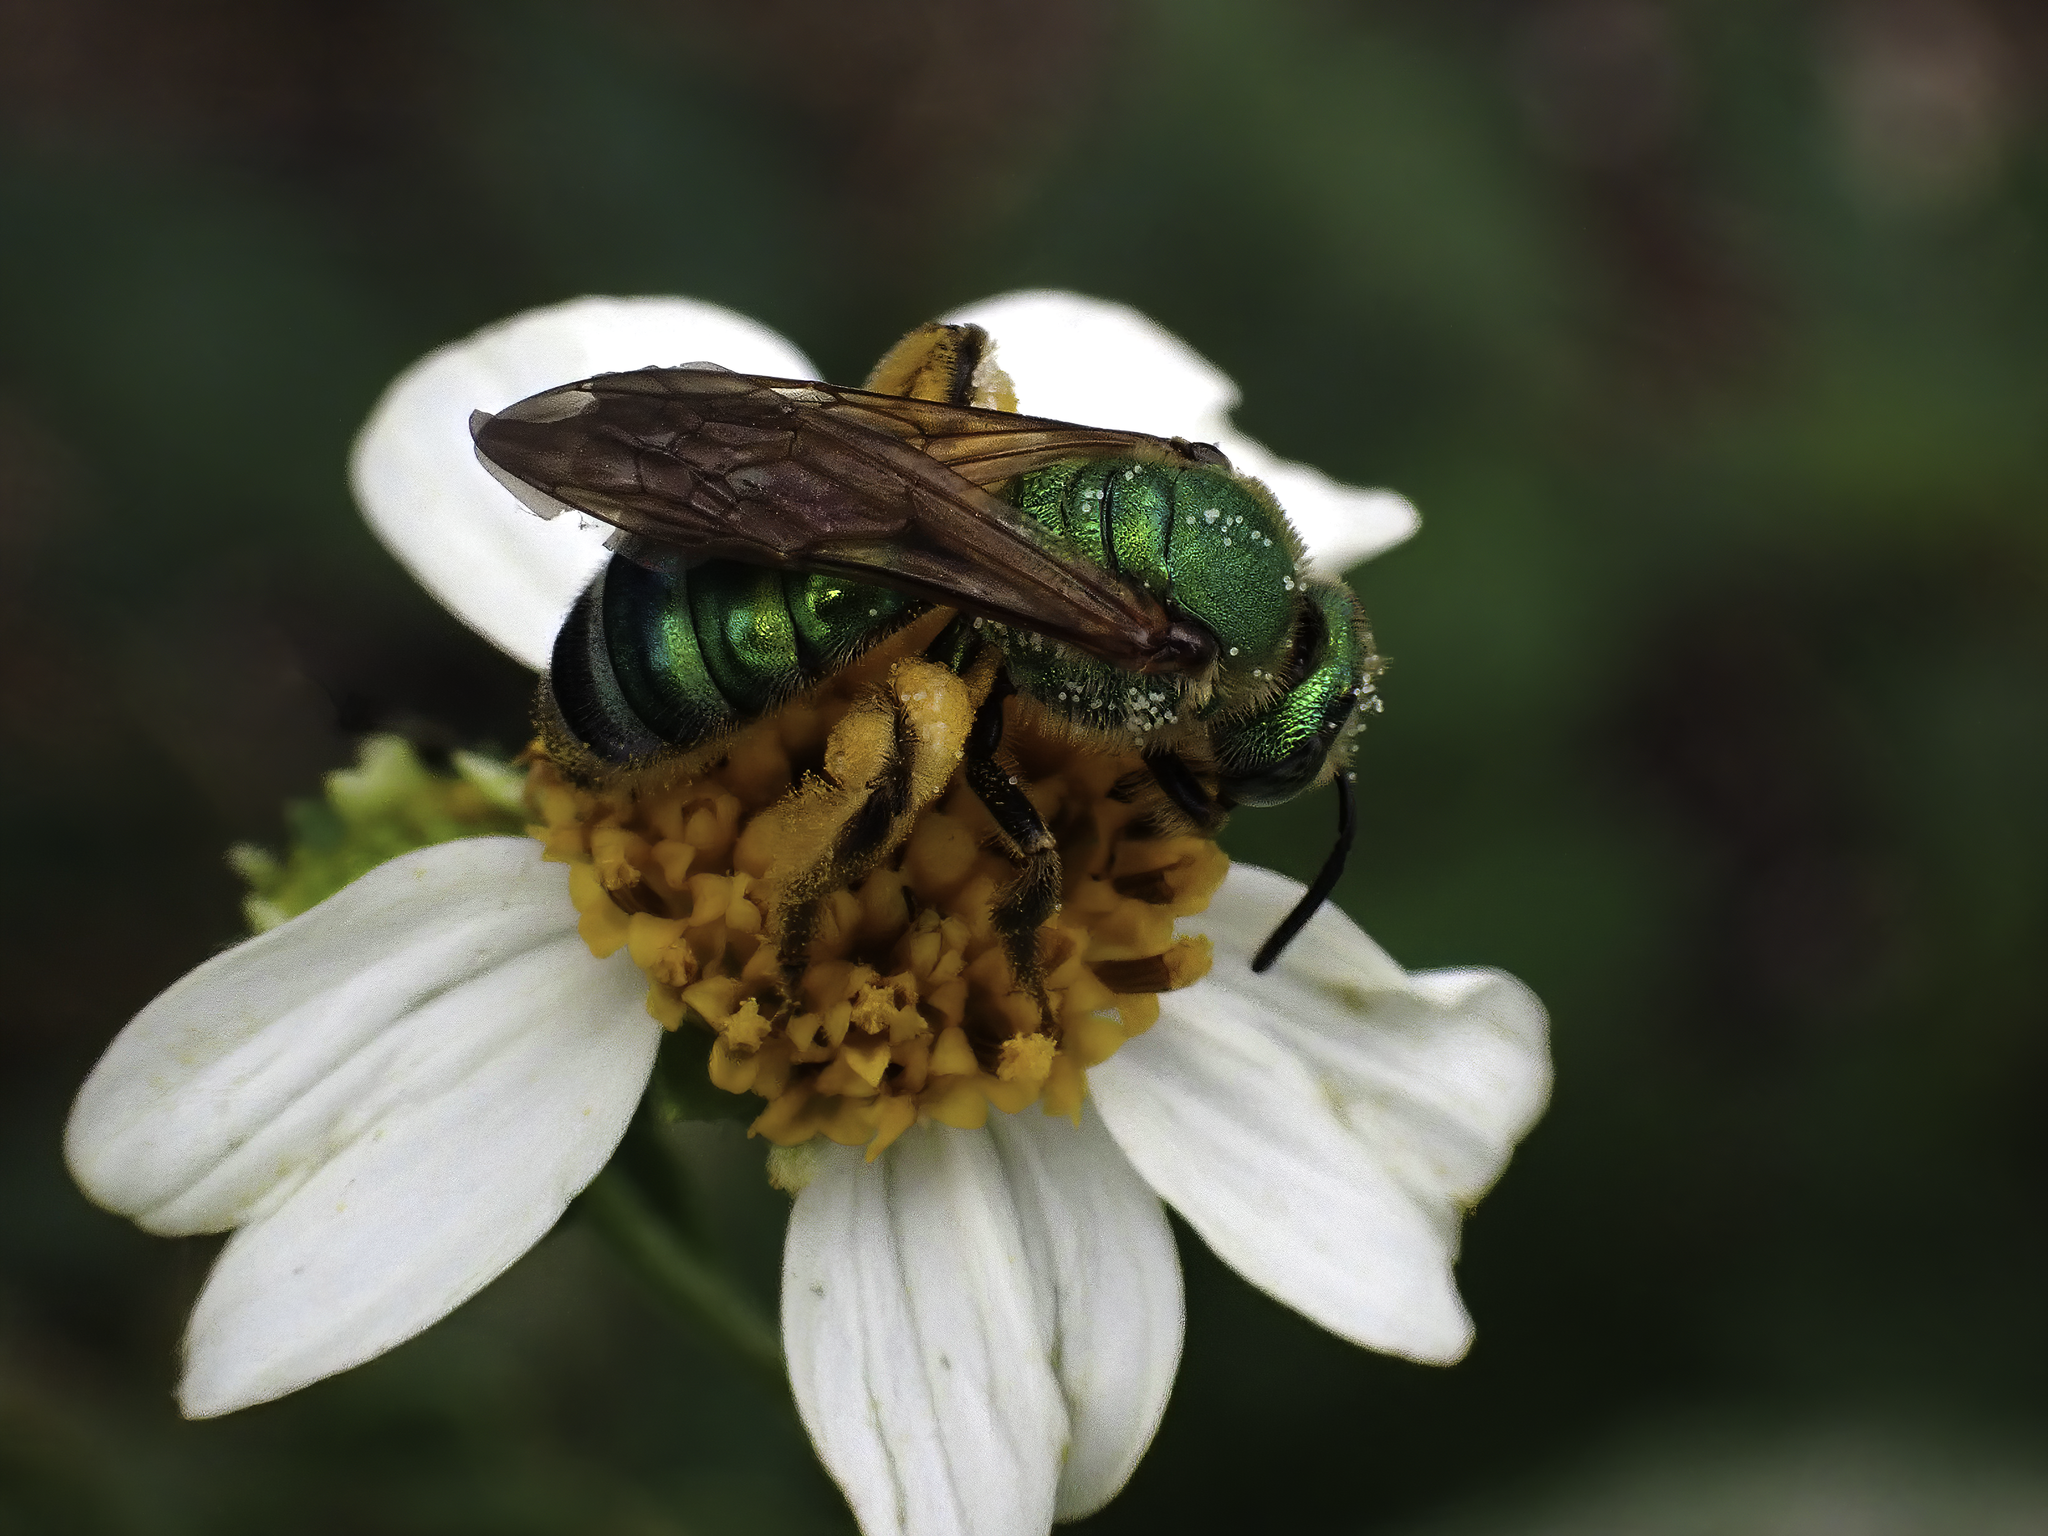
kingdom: Animalia
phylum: Arthropoda
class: Insecta
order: Hymenoptera
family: Halictidae
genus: Agapostemon
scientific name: Agapostemon splendens
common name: Brown-winged striped sweat bee
